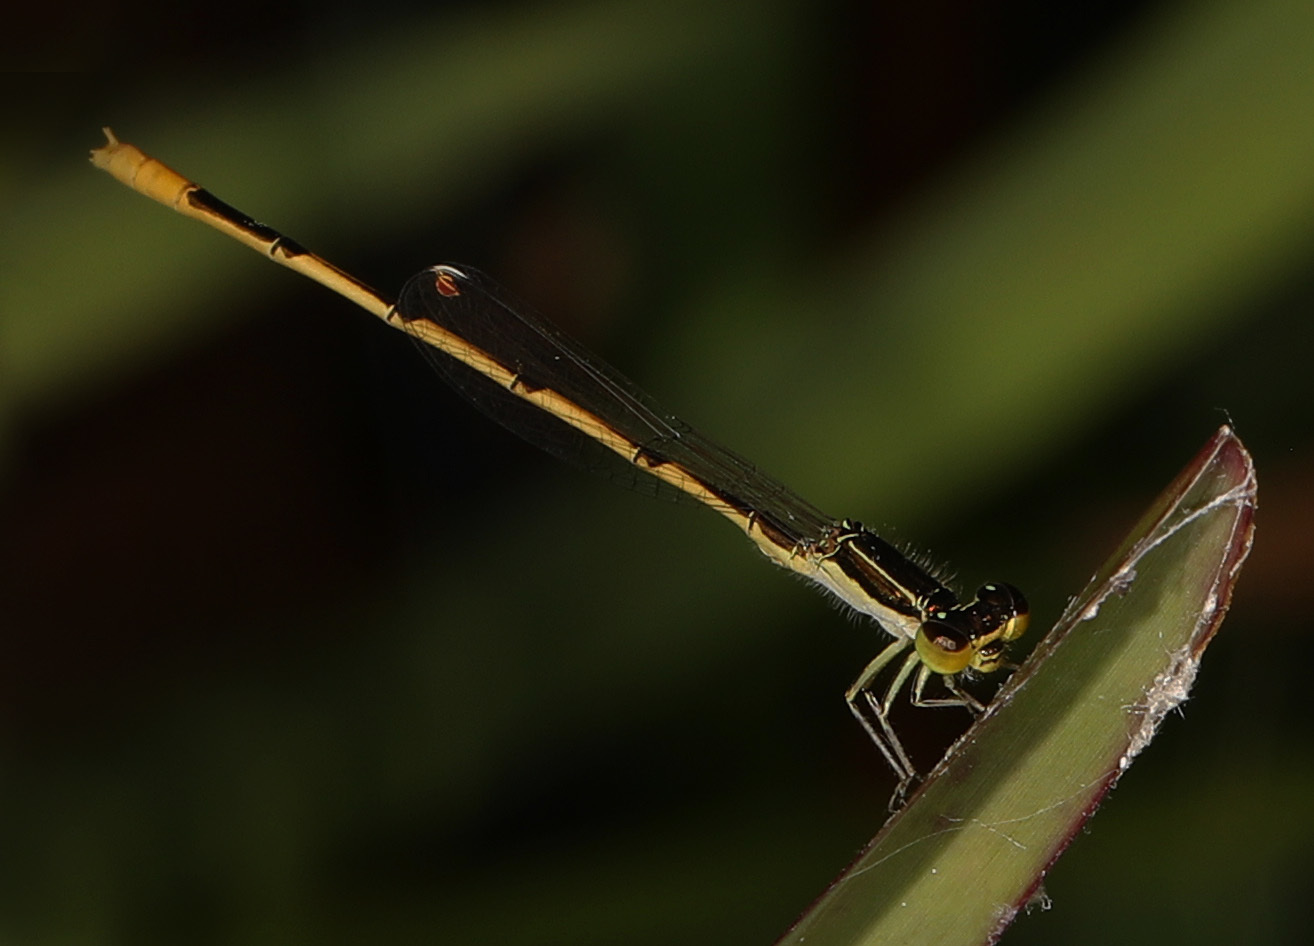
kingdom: Animalia
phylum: Arthropoda
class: Insecta
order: Odonata
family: Coenagrionidae
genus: Ischnura
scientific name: Ischnura hastata
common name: Citrine forktail
